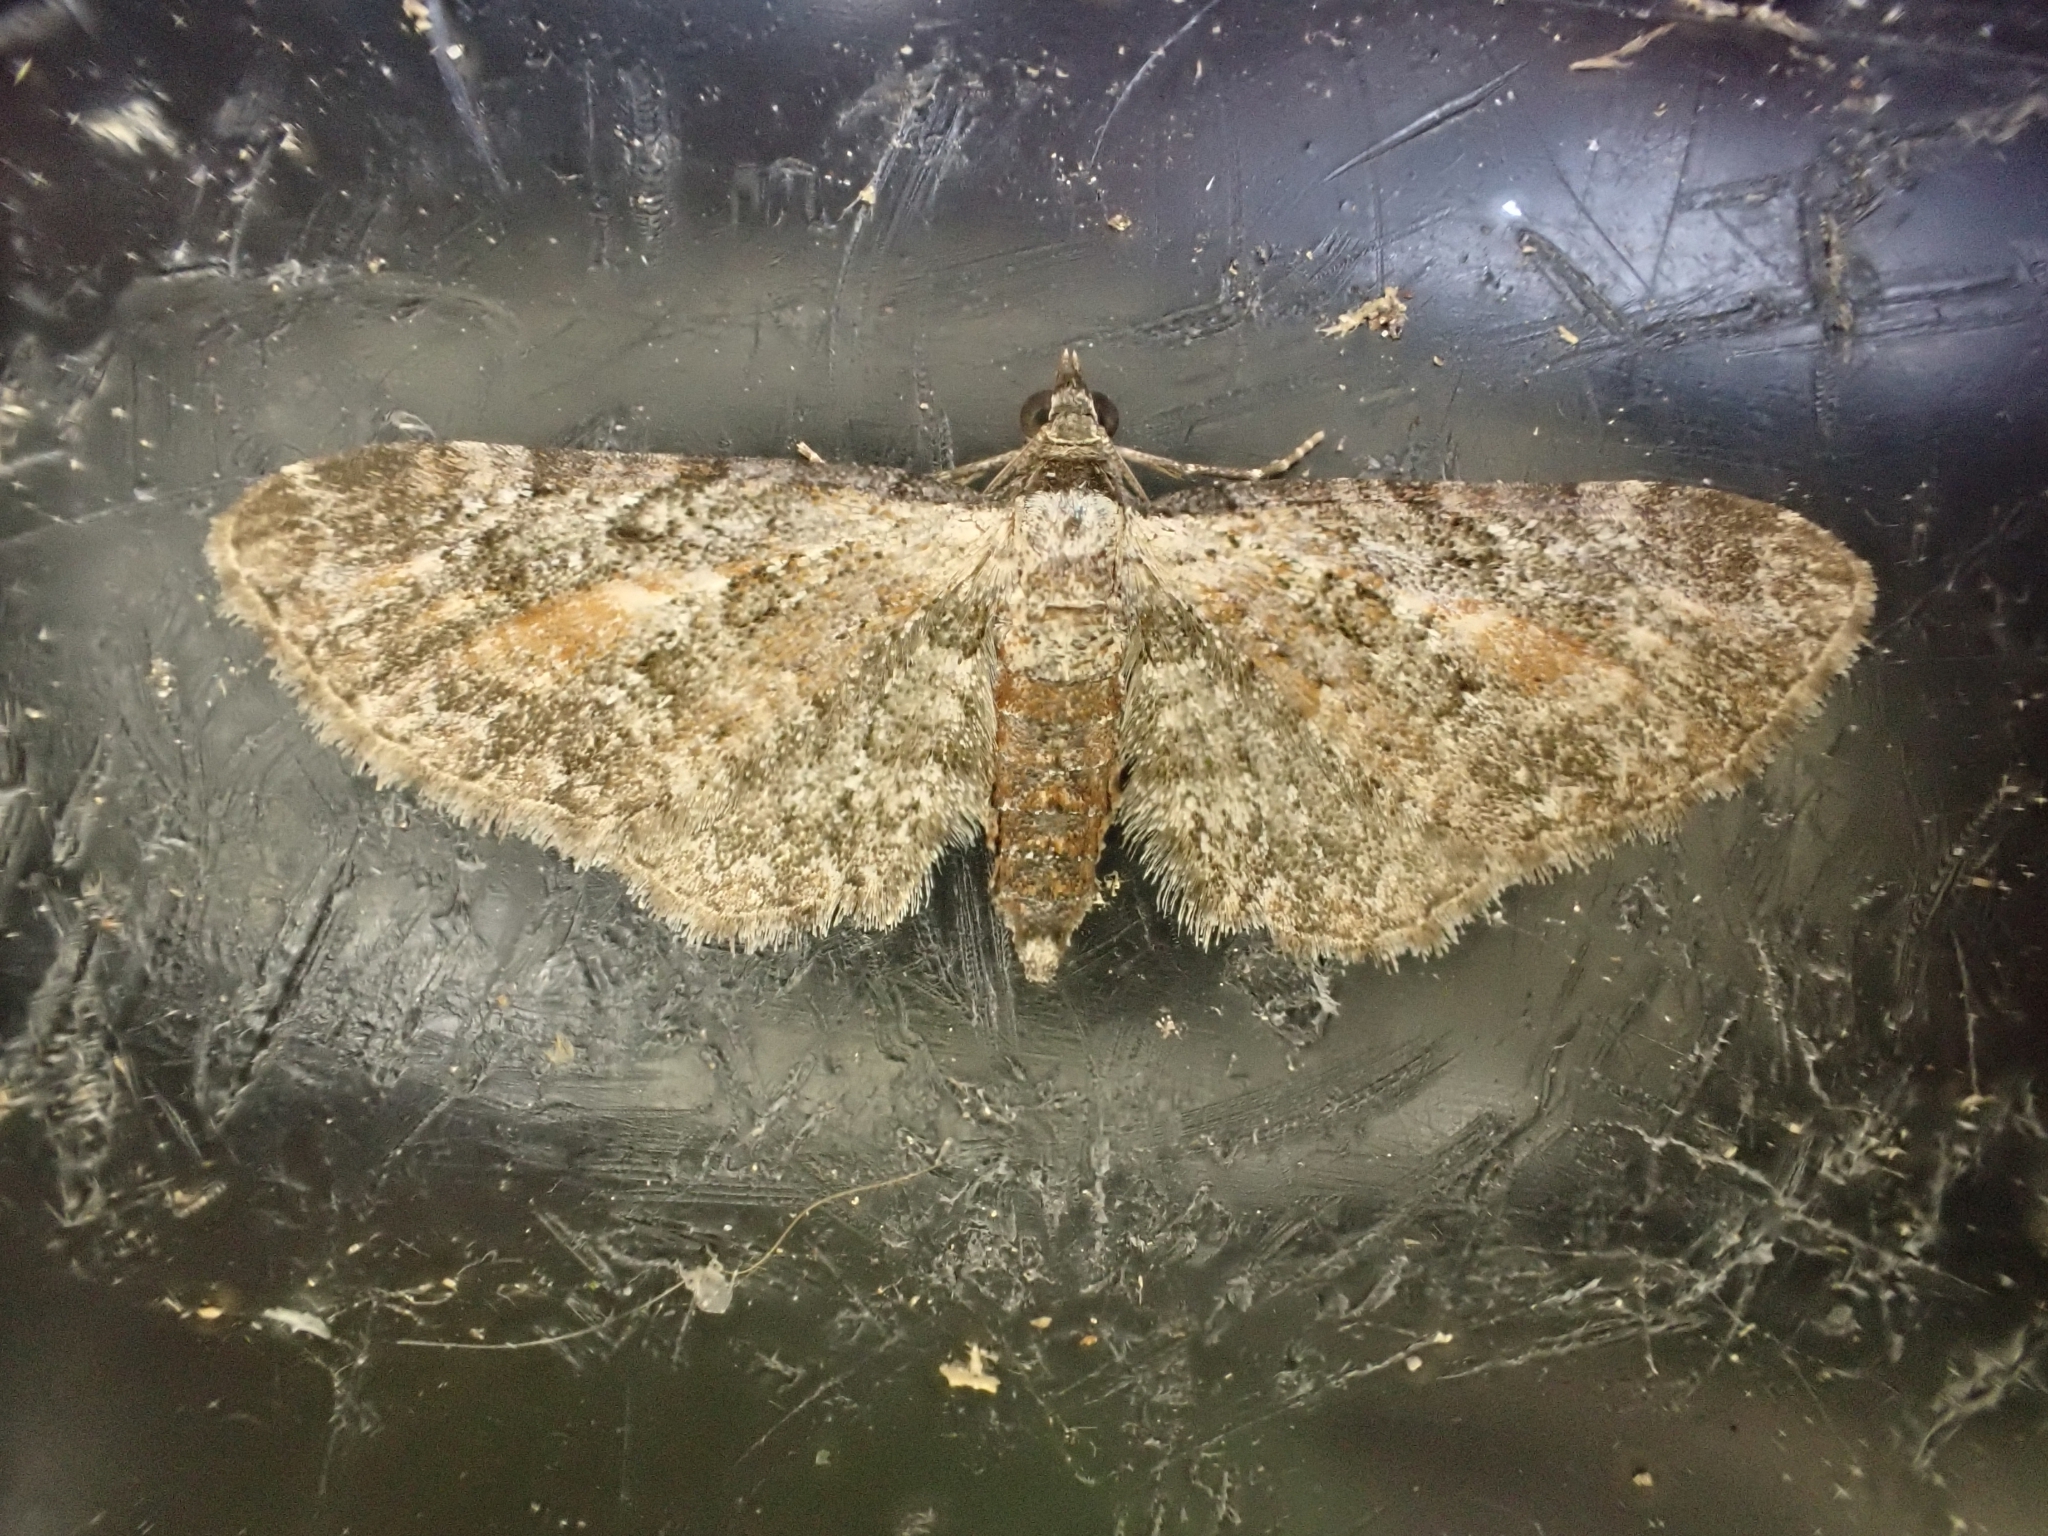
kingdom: Animalia
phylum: Arthropoda
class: Insecta
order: Lepidoptera
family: Geometridae
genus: Eupithecia
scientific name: Eupithecia icterata
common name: Tawny speckled pug
